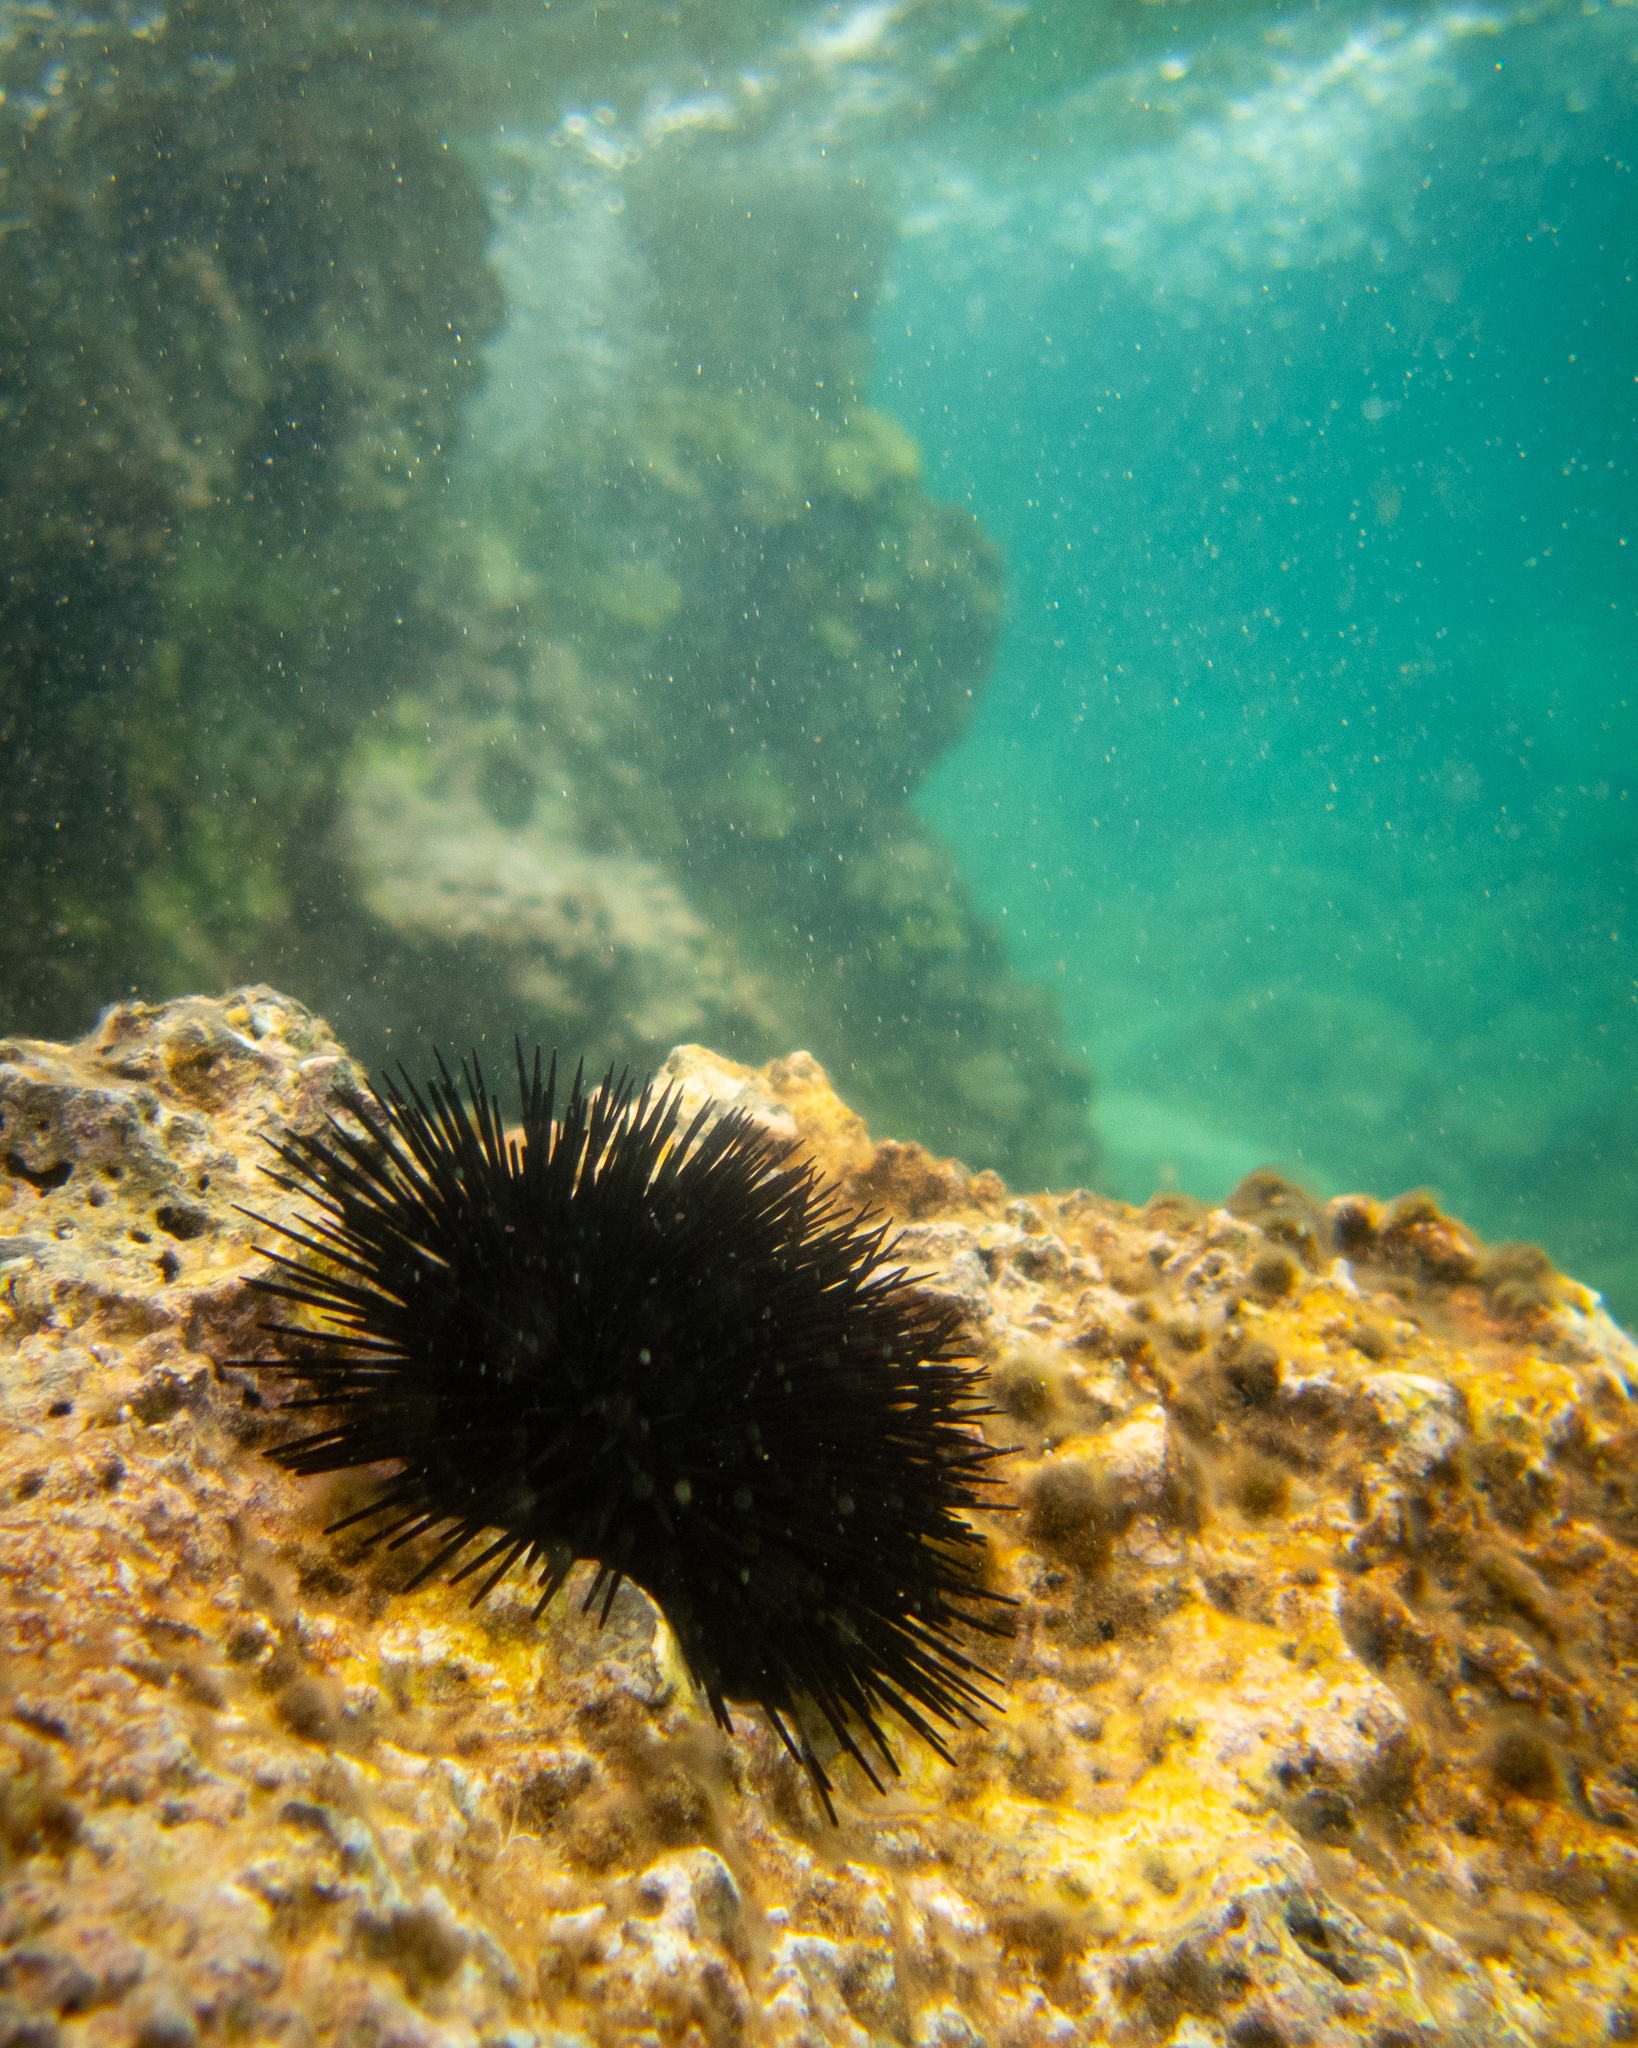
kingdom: Animalia
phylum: Echinodermata
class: Echinoidea
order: Arbacioida
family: Arbaciidae
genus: Arbacia
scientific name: Arbacia lixula
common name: Black sea urchin
